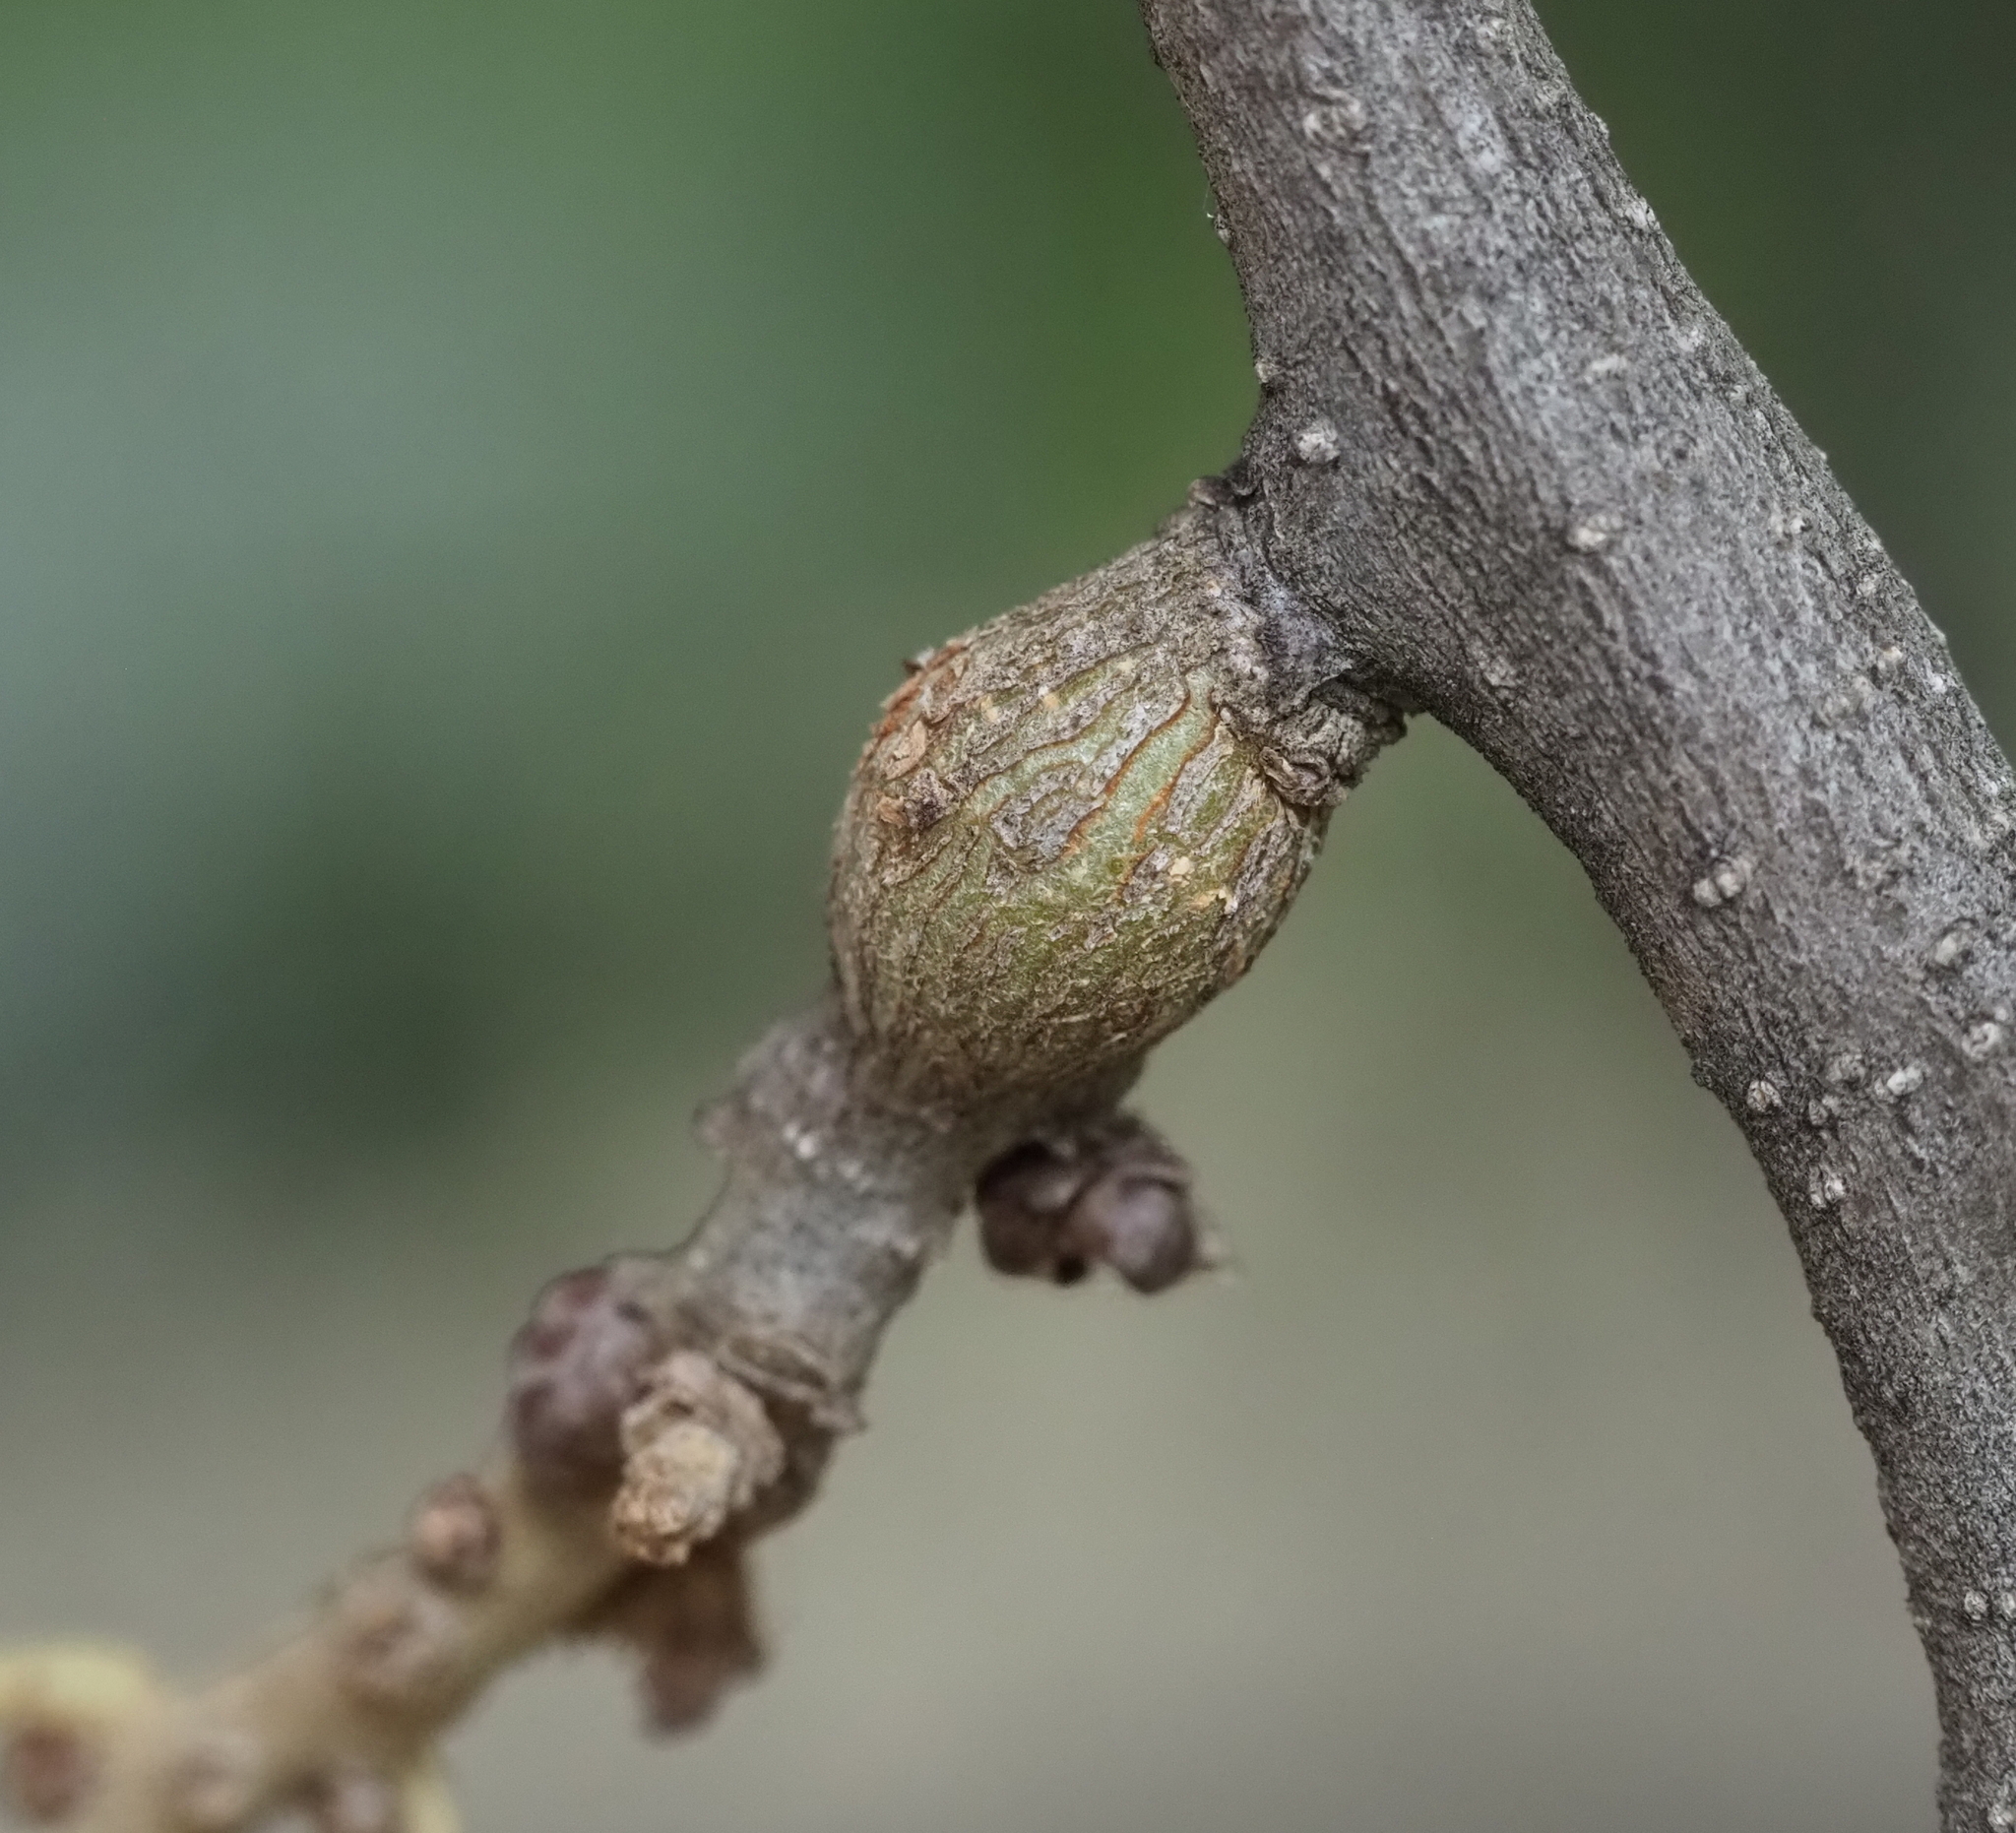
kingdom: Animalia
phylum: Arthropoda
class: Insecta
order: Hymenoptera
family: Cynipidae
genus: Callirhytis
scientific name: Callirhytis
